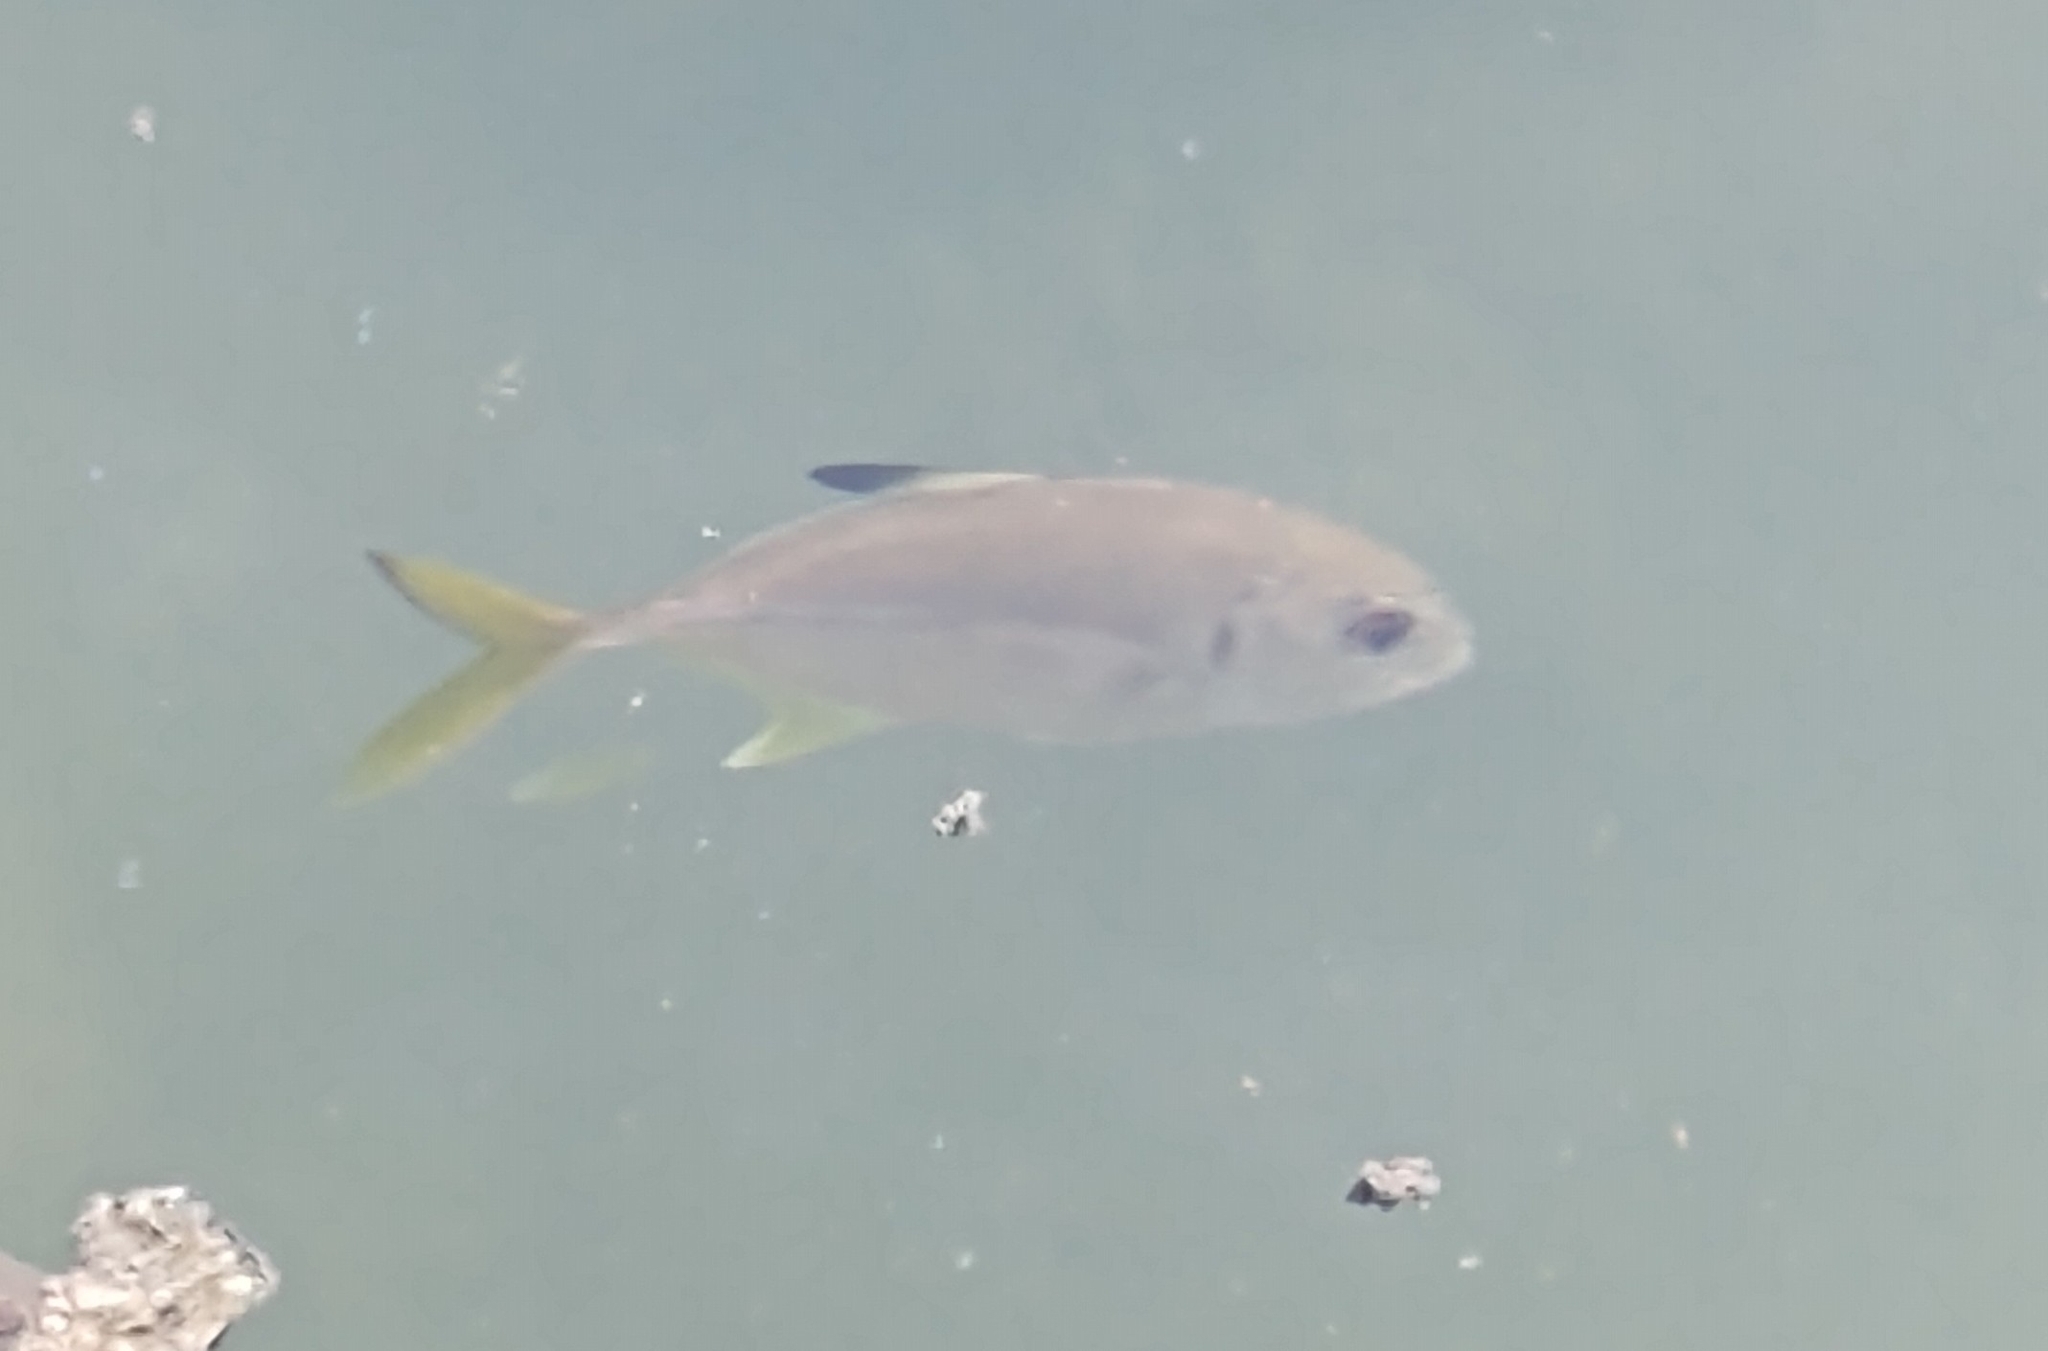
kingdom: Animalia
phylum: Chordata
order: Perciformes
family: Carangidae
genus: Caranx
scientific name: Caranx latus
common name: Horse eye jack
